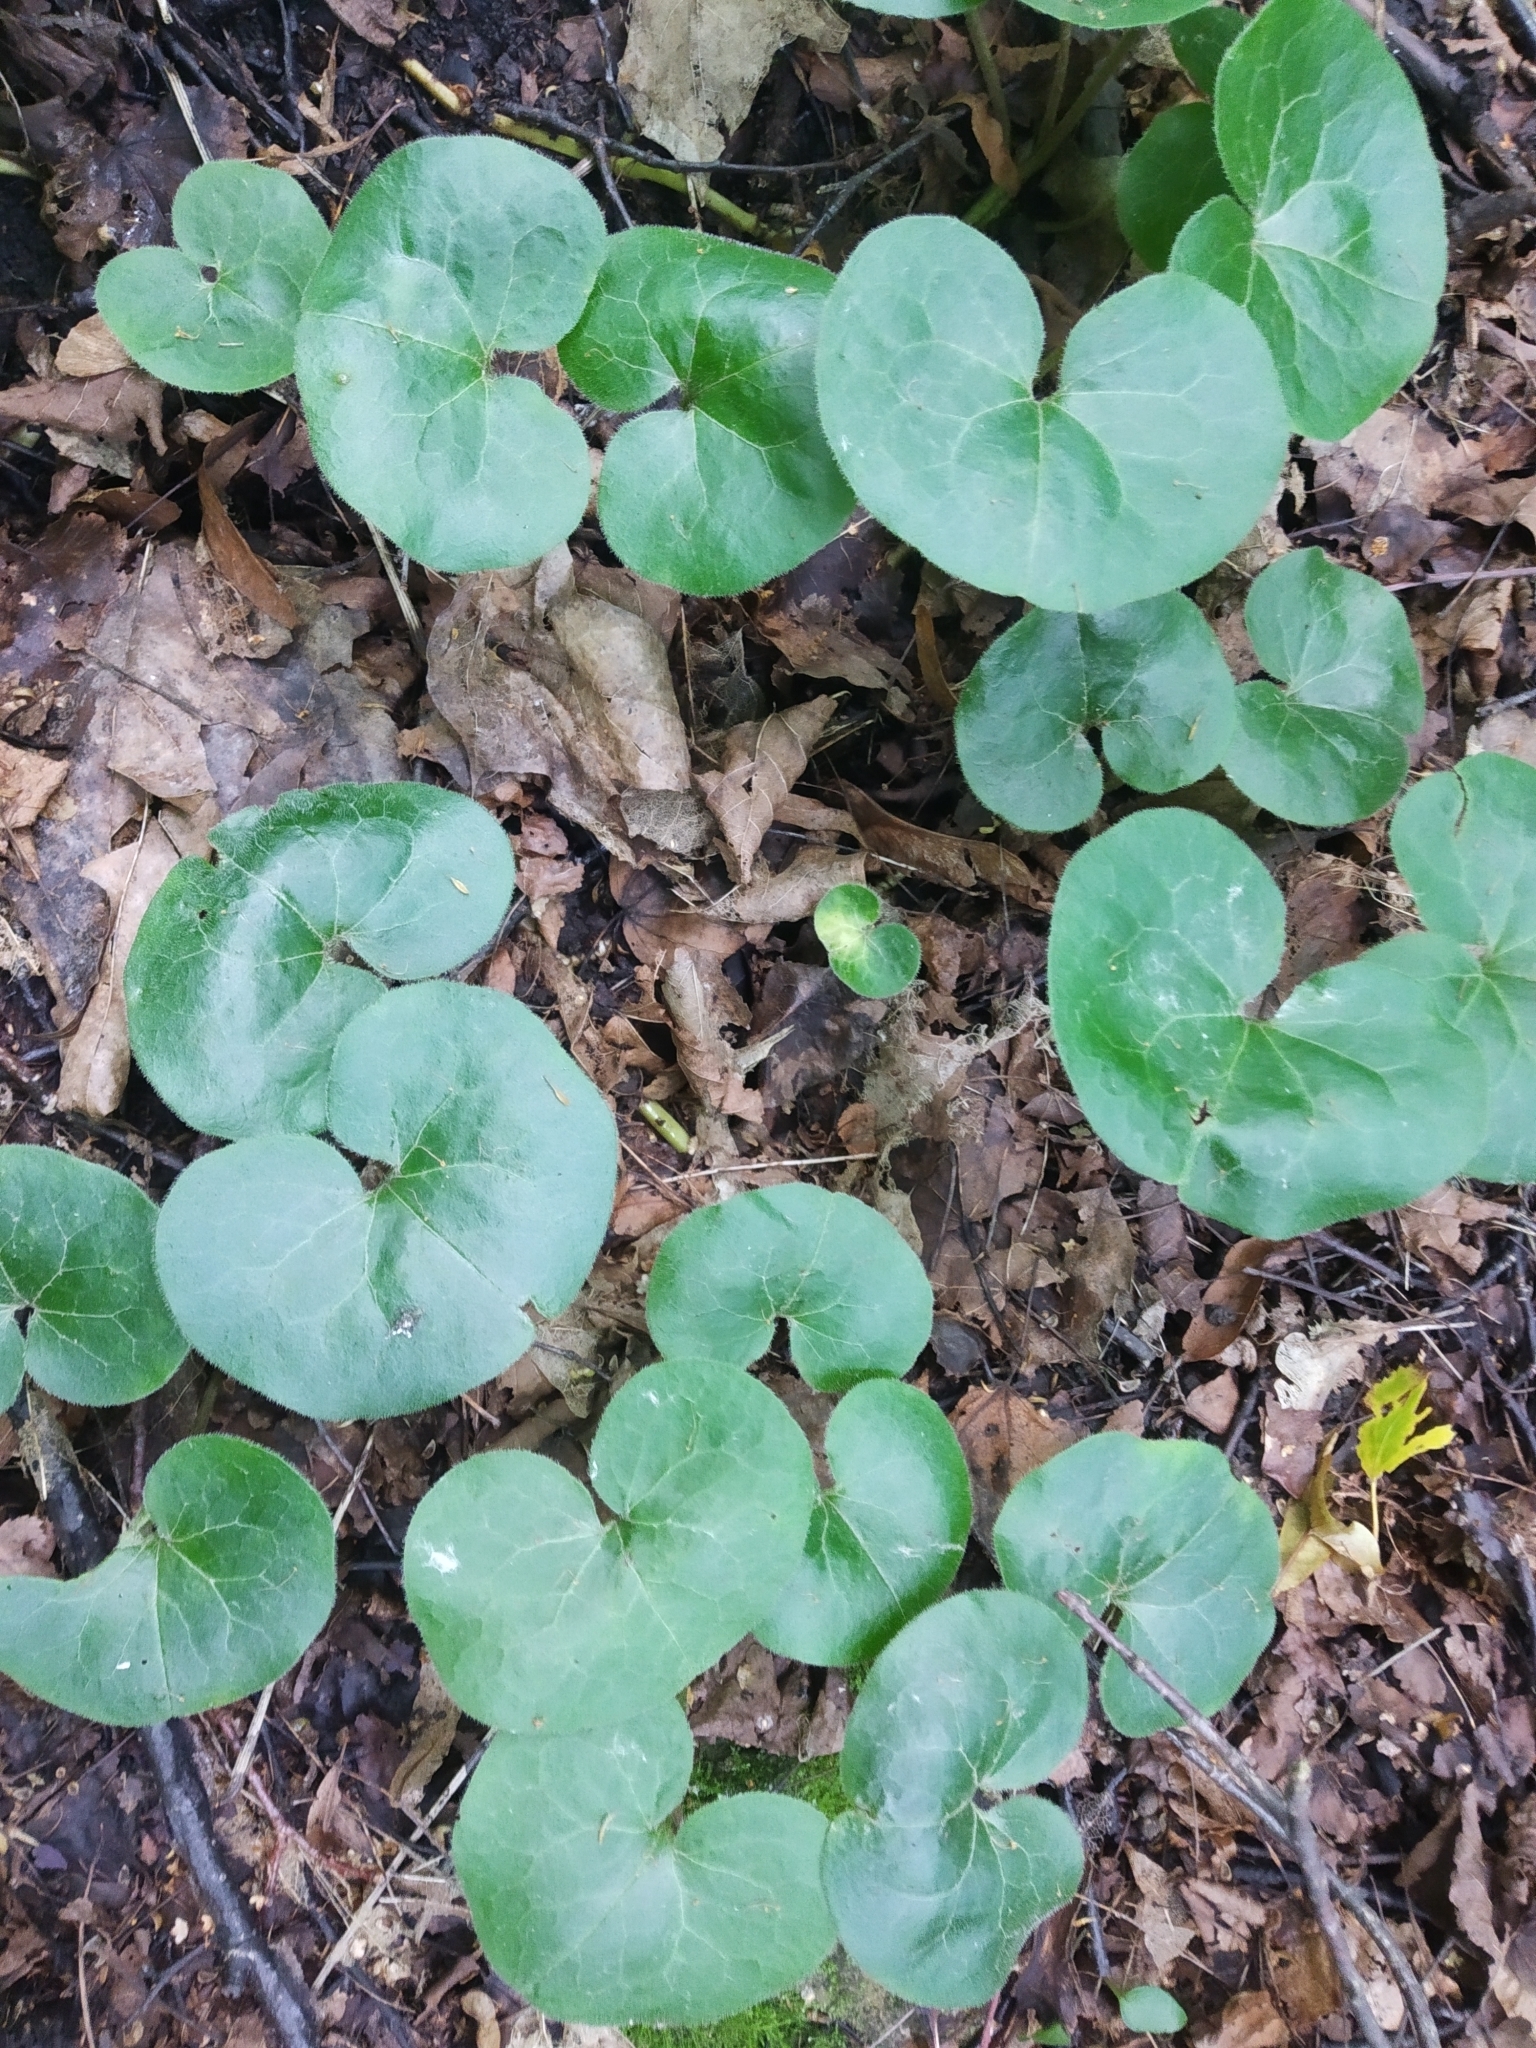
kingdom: Plantae
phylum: Tracheophyta
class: Magnoliopsida
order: Piperales
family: Aristolochiaceae
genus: Asarum
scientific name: Asarum europaeum
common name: Asarabacca
